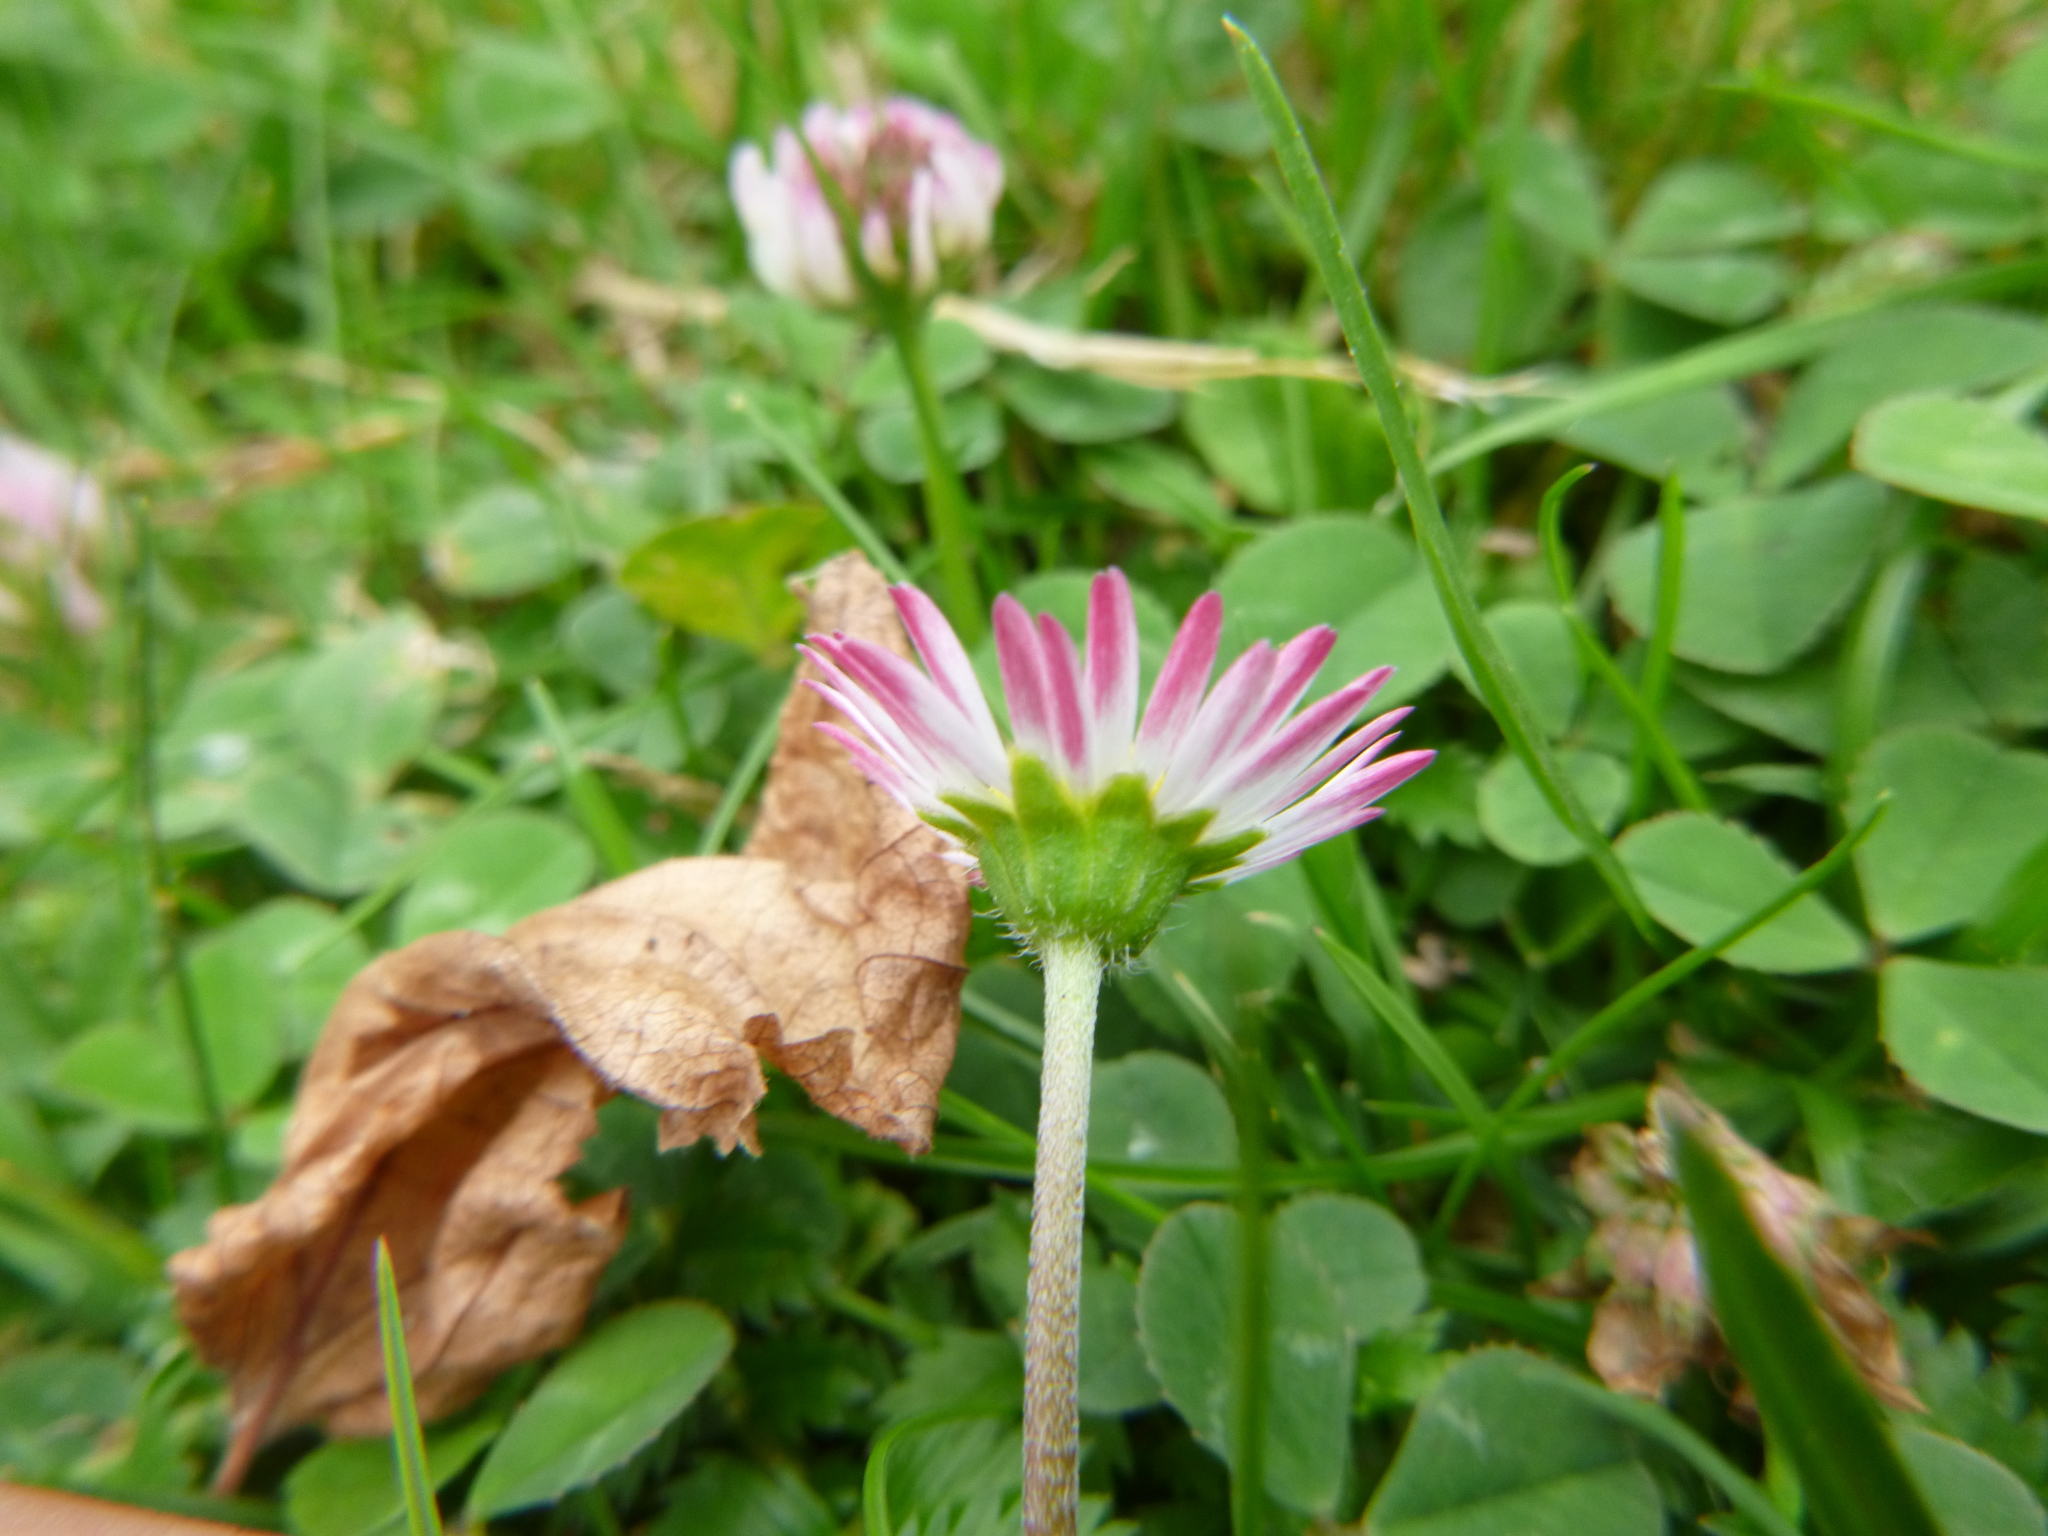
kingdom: Plantae
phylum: Tracheophyta
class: Magnoliopsida
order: Asterales
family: Asteraceae
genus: Bellis
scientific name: Bellis perennis
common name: Lawndaisy
